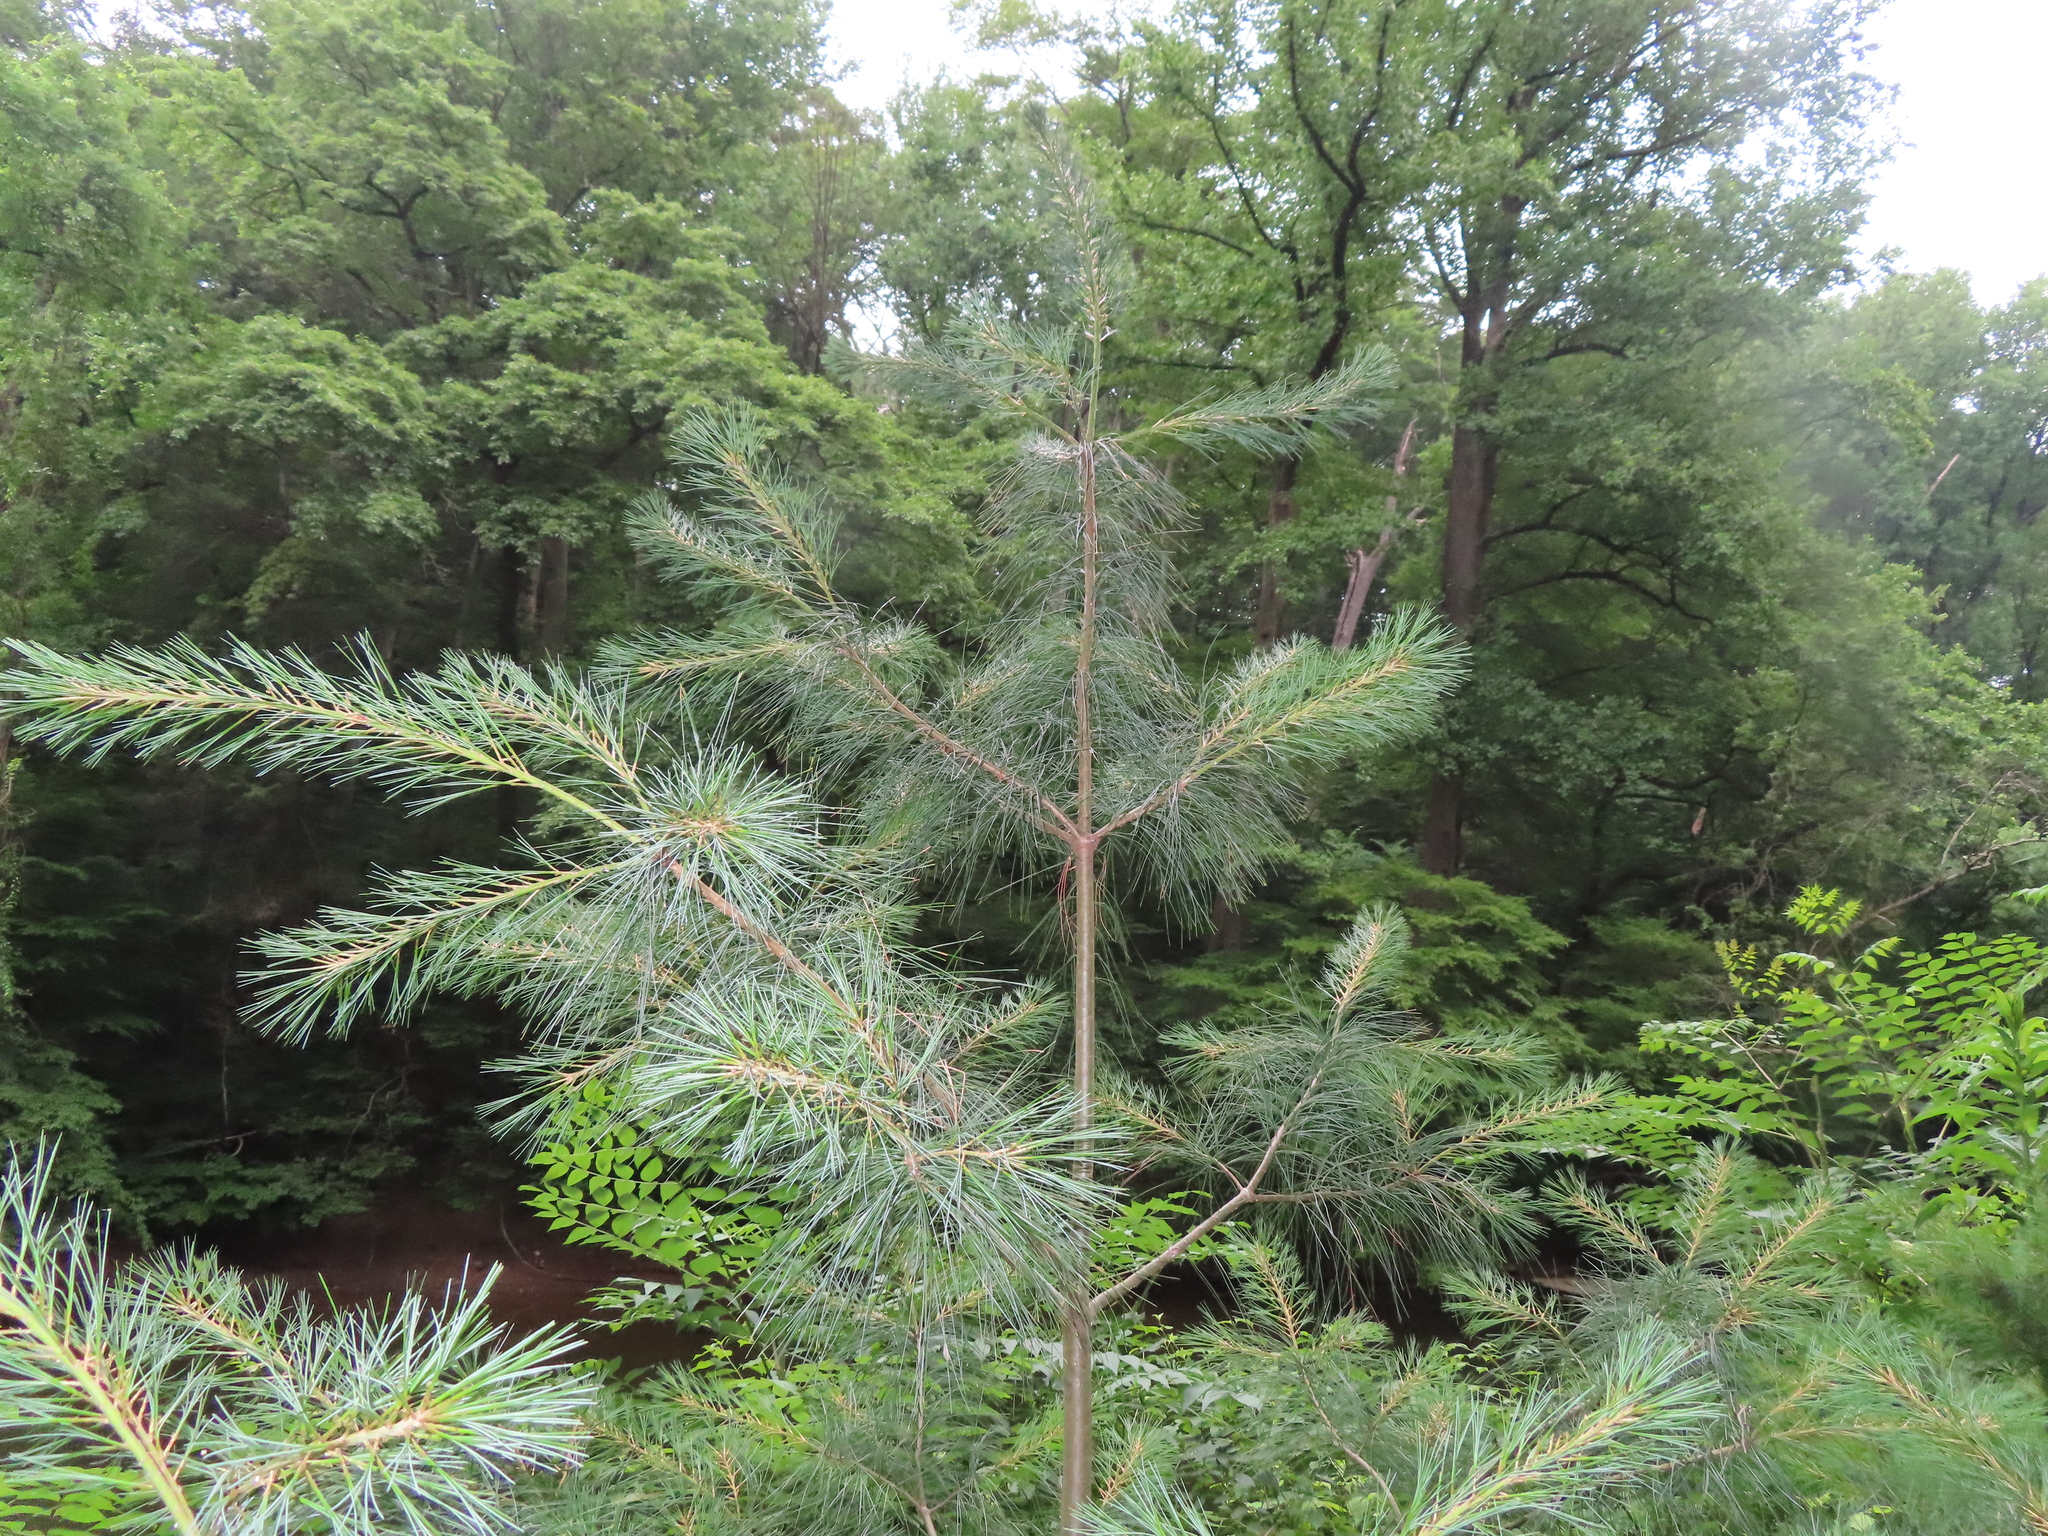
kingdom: Plantae
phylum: Tracheophyta
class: Pinopsida
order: Pinales
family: Pinaceae
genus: Pinus
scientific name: Pinus strobus
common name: Weymouth pine
